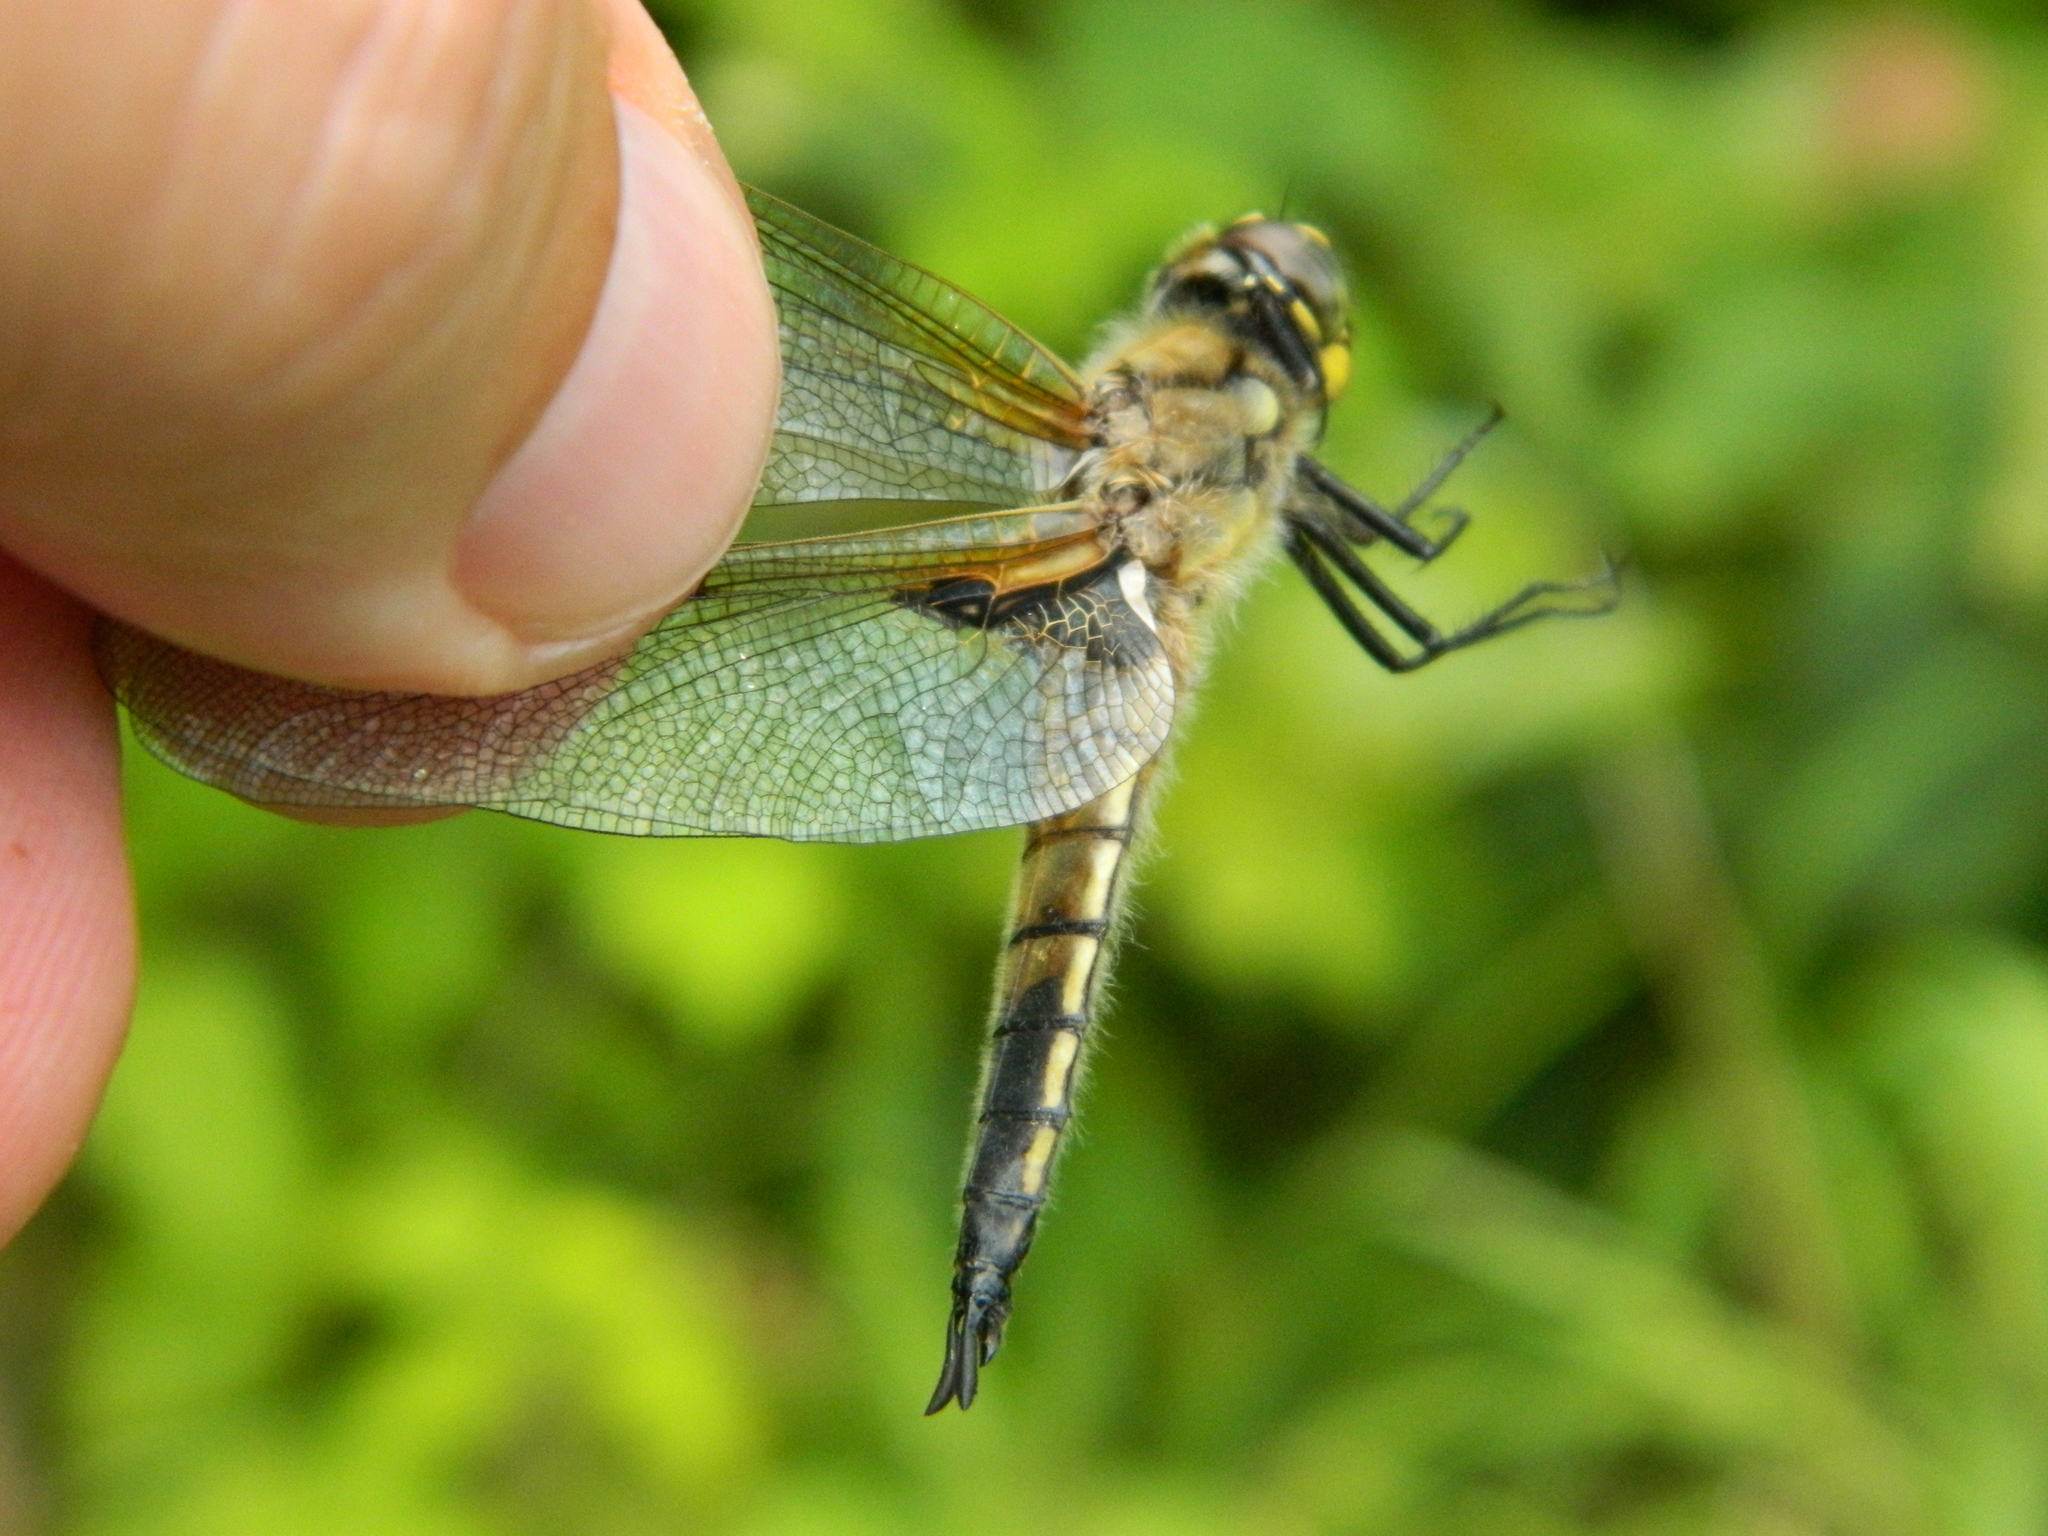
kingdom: Animalia
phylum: Arthropoda
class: Insecta
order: Odonata
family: Libellulidae
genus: Libellula
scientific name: Libellula quadrimaculata
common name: Four-spotted chaser
